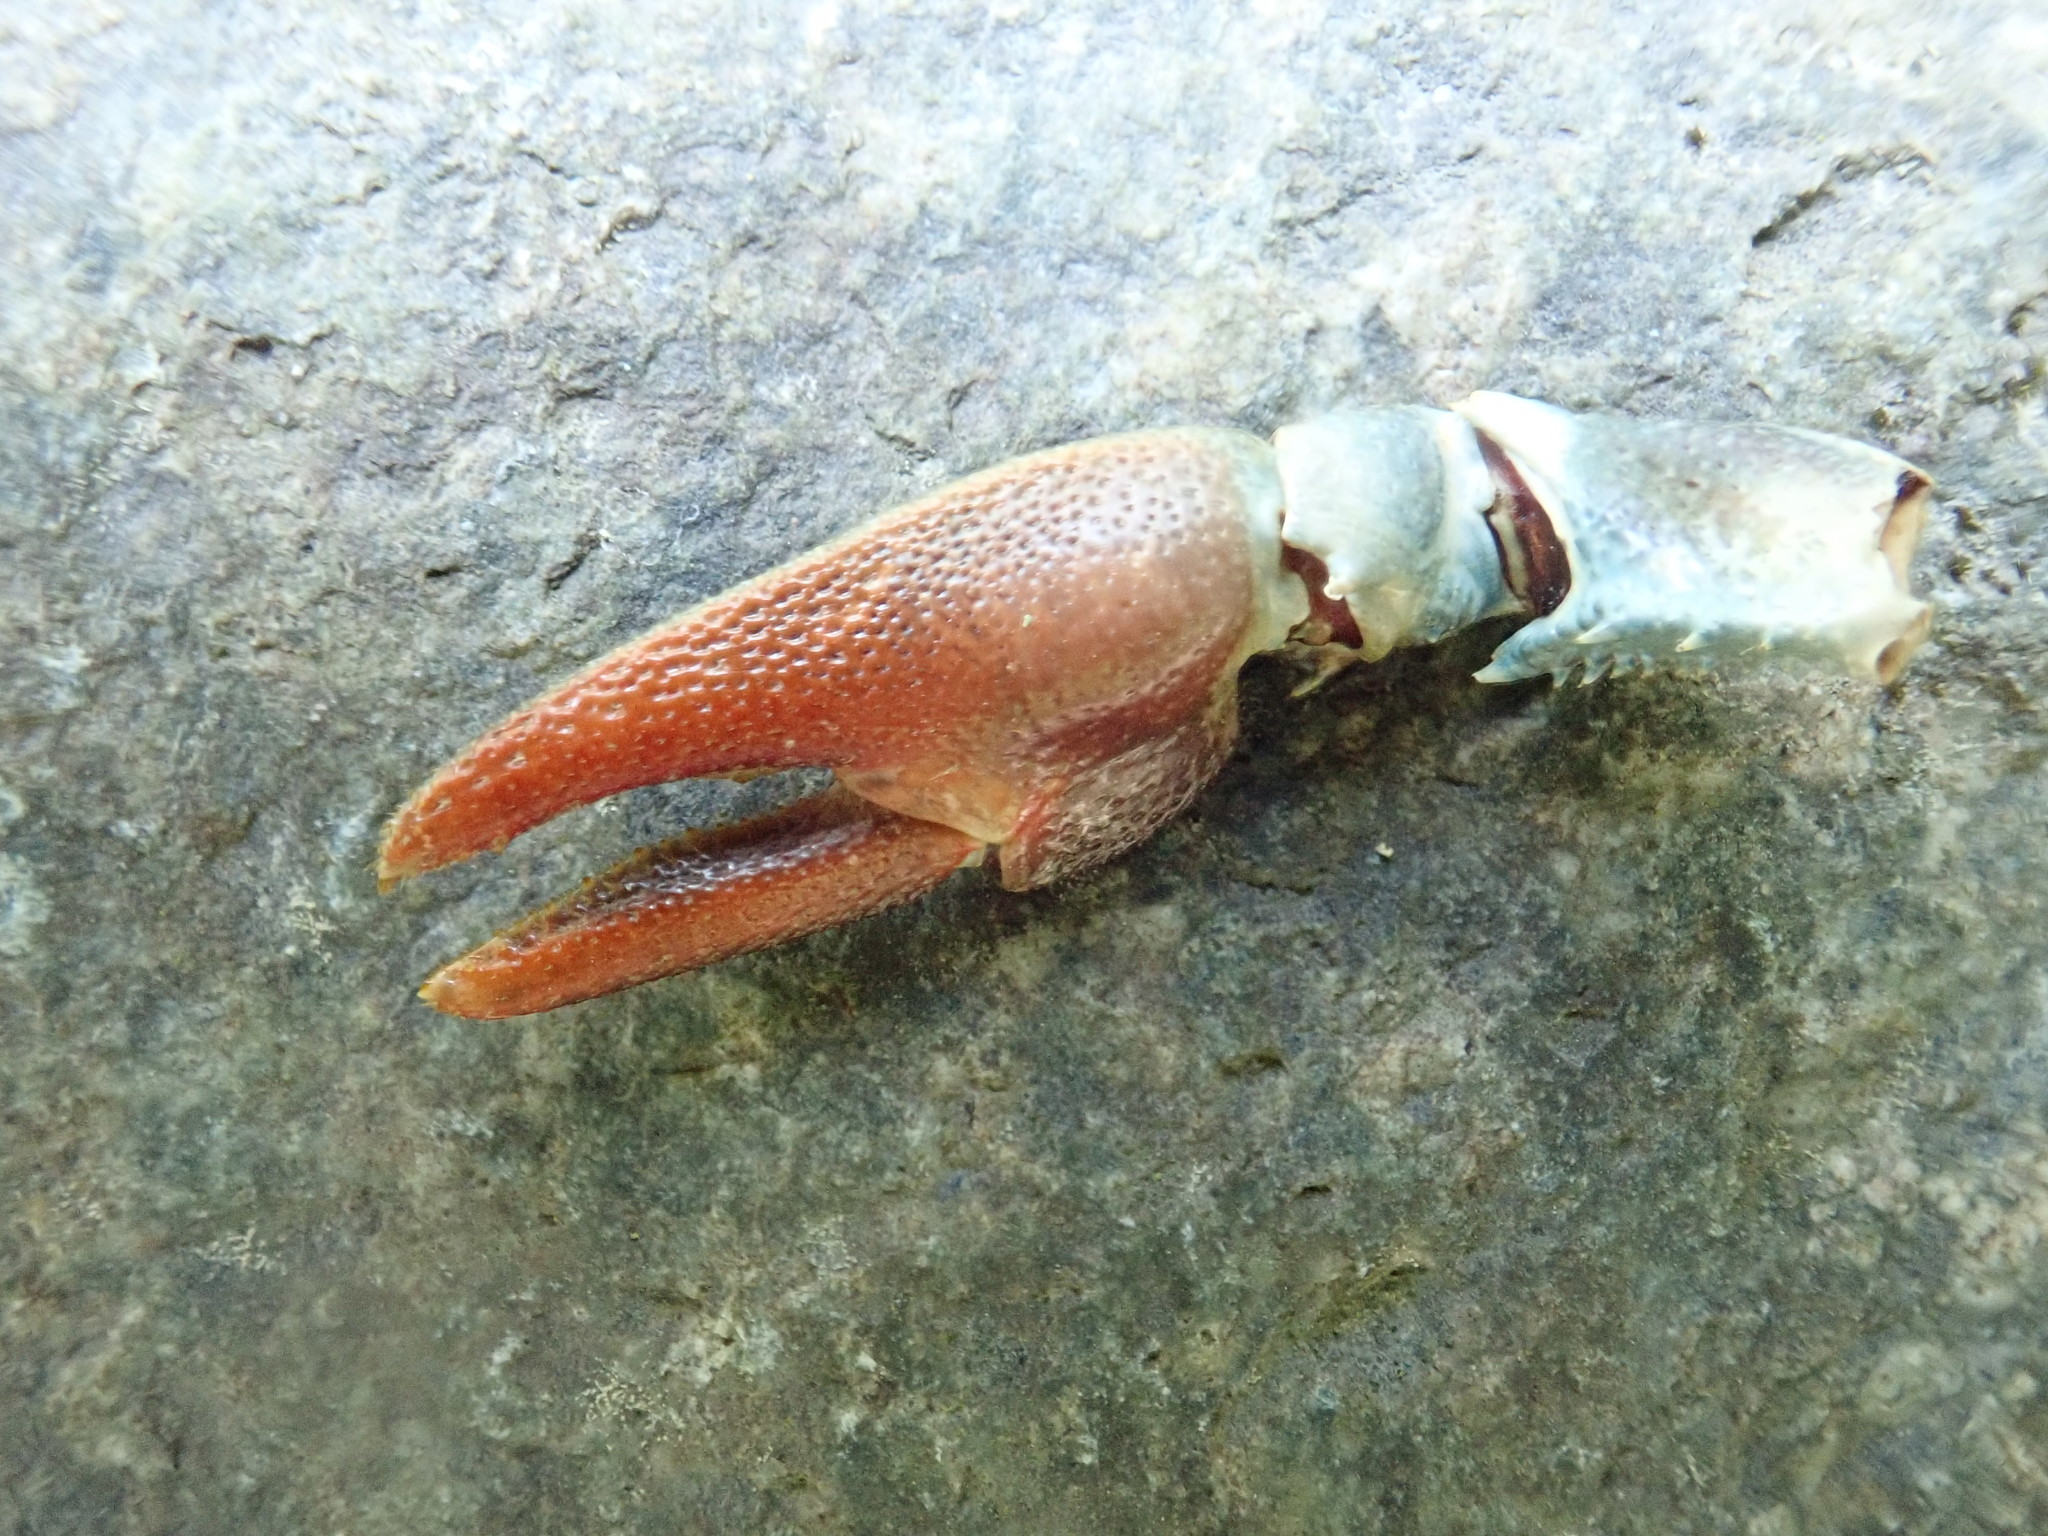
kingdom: Animalia
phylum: Arthropoda
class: Malacostraca
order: Decapoda
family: Astacidae
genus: Pacifastacus
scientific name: Pacifastacus leniusculus
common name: Signal crayfish
